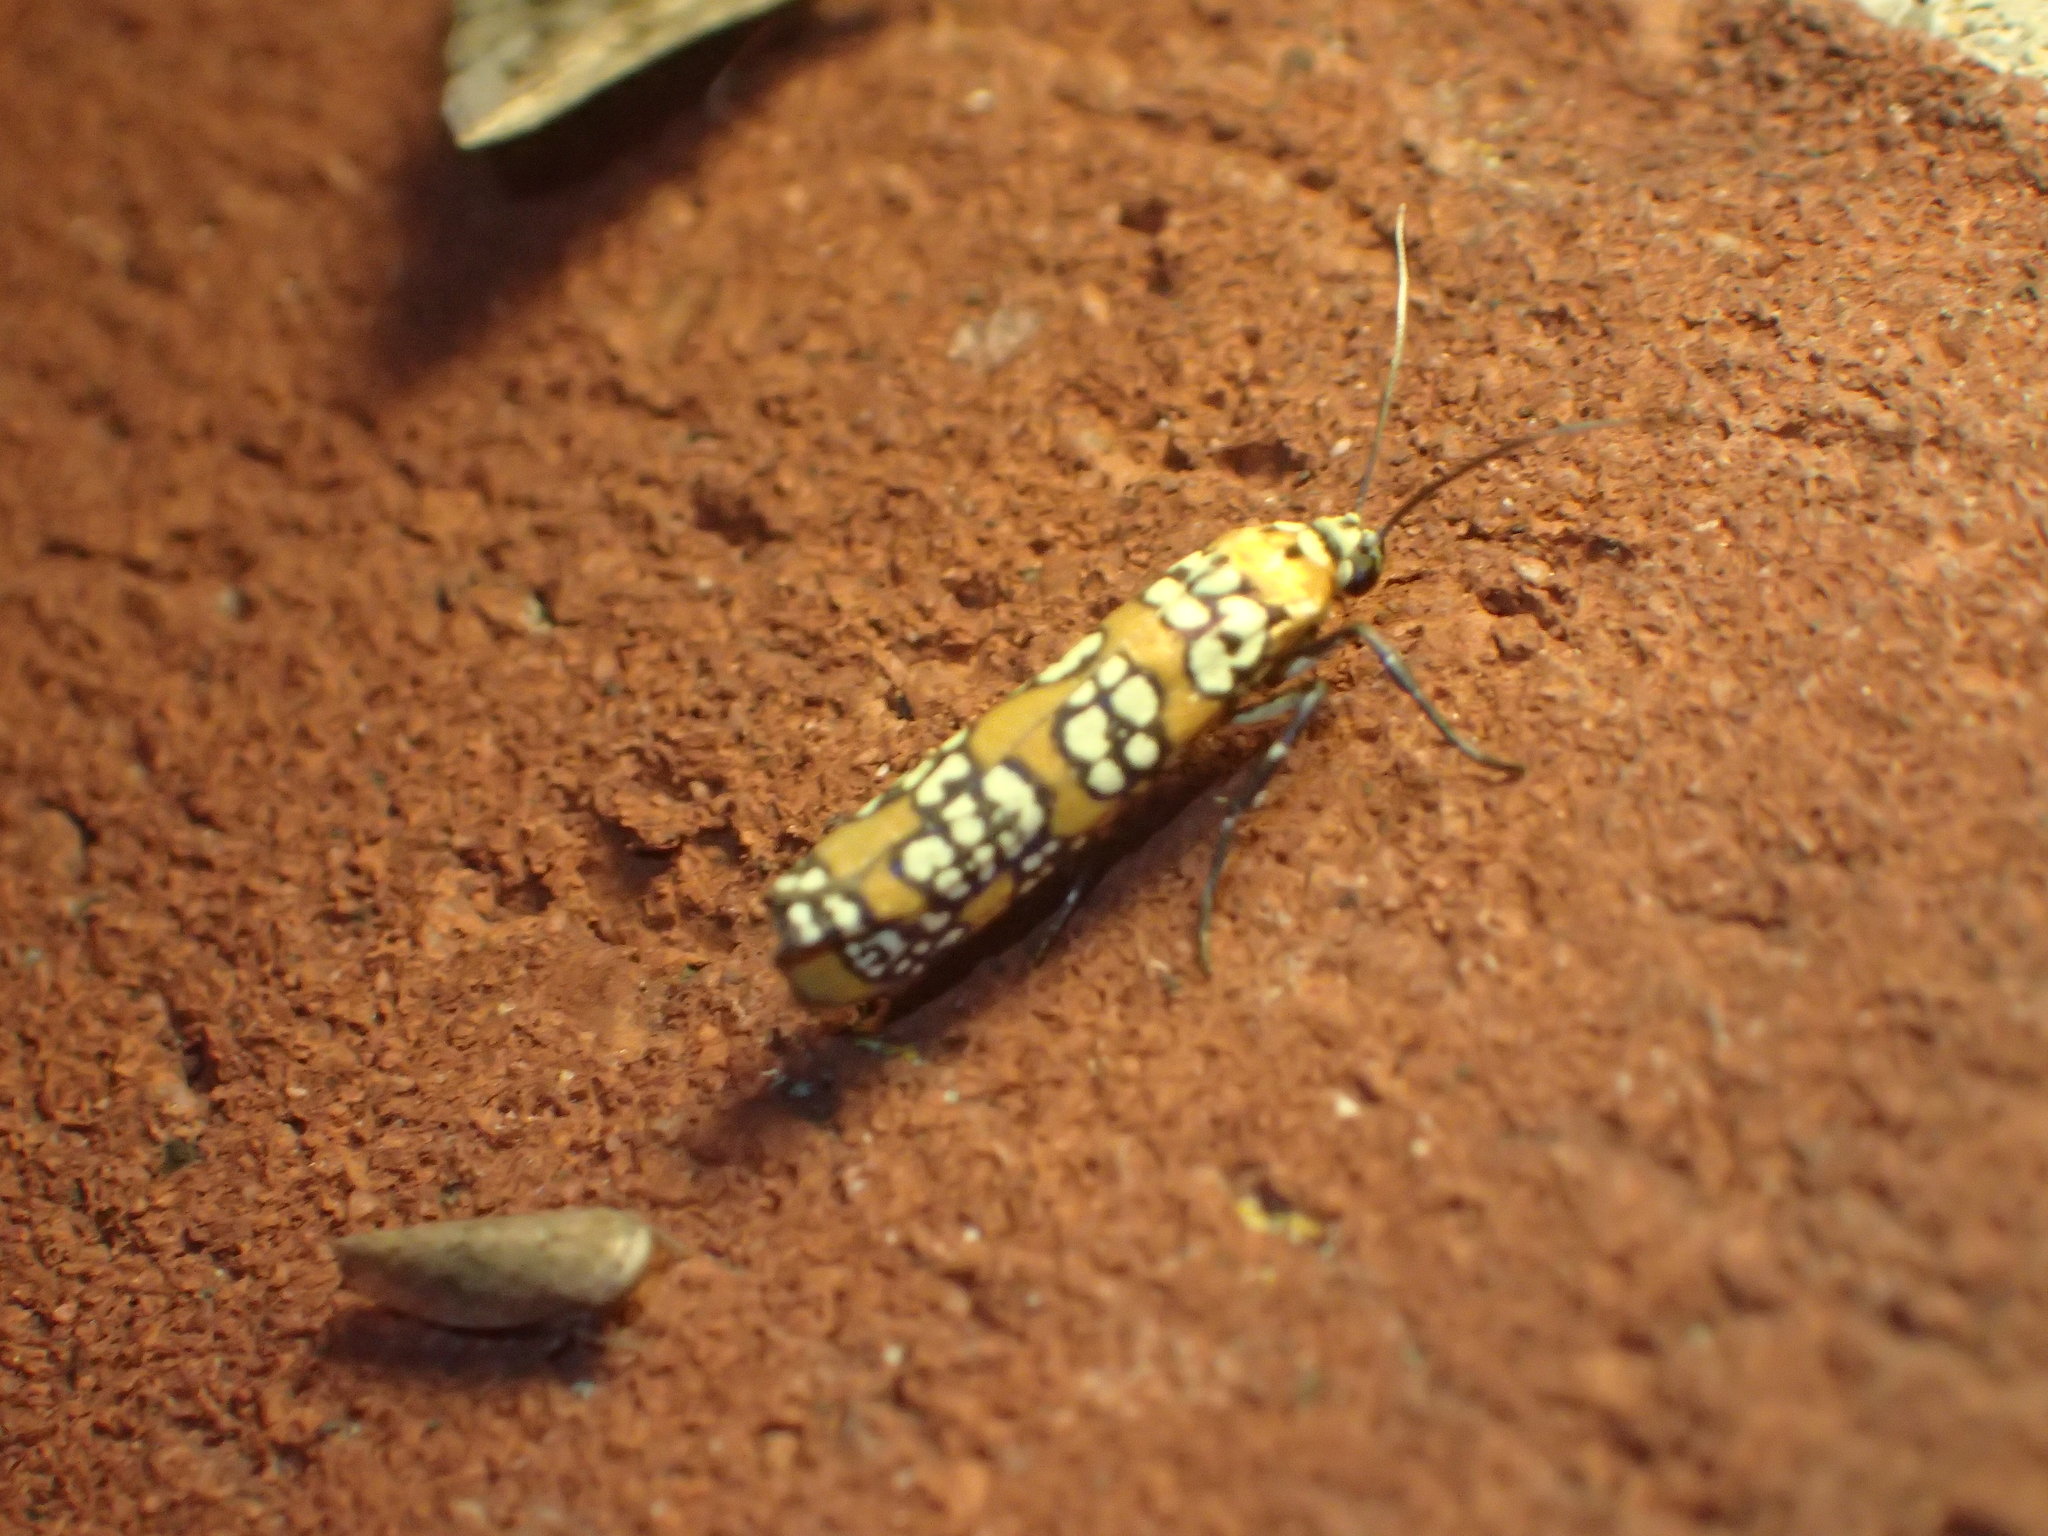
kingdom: Animalia
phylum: Arthropoda
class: Insecta
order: Lepidoptera
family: Attevidae
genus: Atteva
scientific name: Atteva punctella
